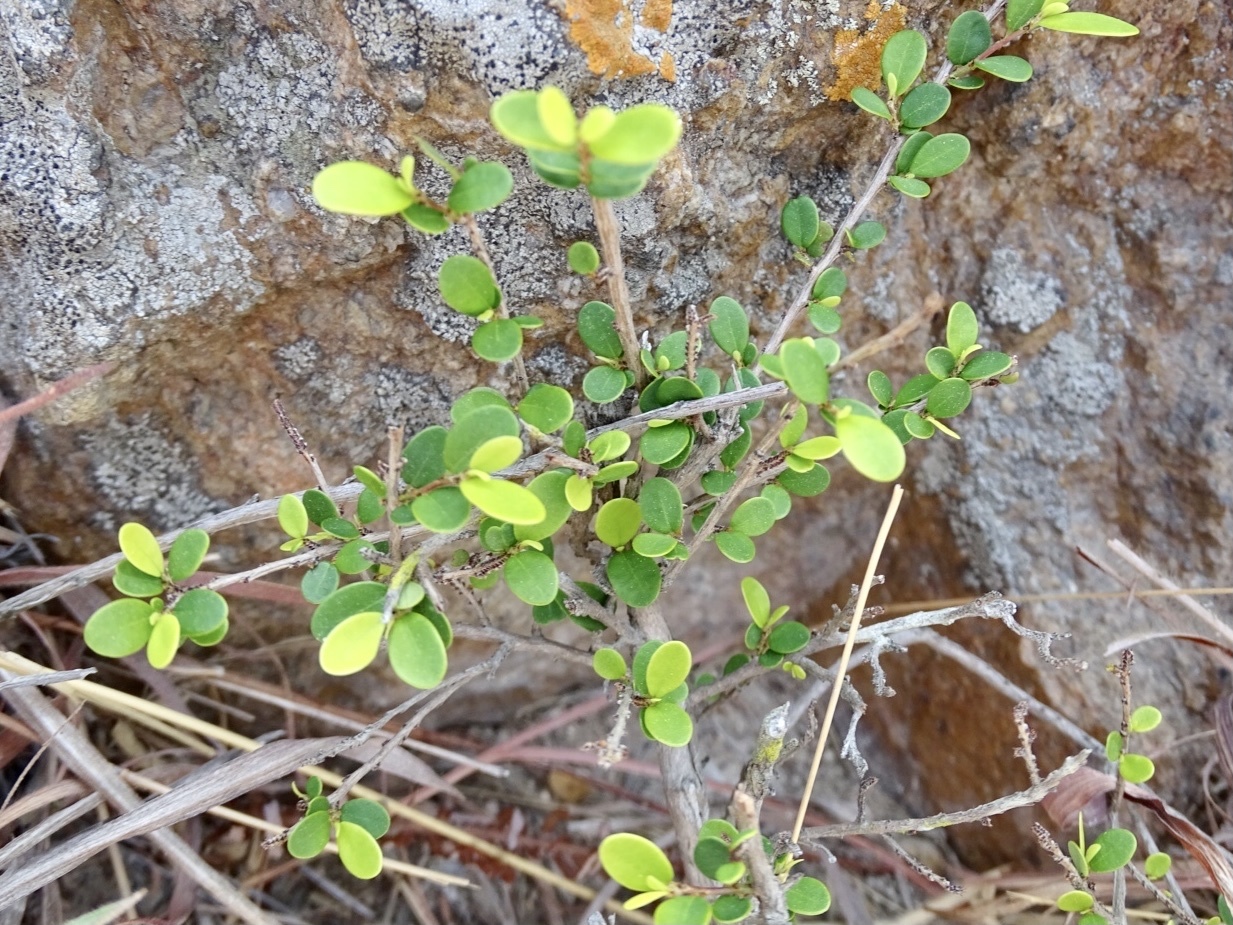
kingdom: Plantae
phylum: Tracheophyta
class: Magnoliopsida
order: Malpighiales
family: Phyllanthaceae
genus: Phyllanthus
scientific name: Phyllanthus cochinchinensis
